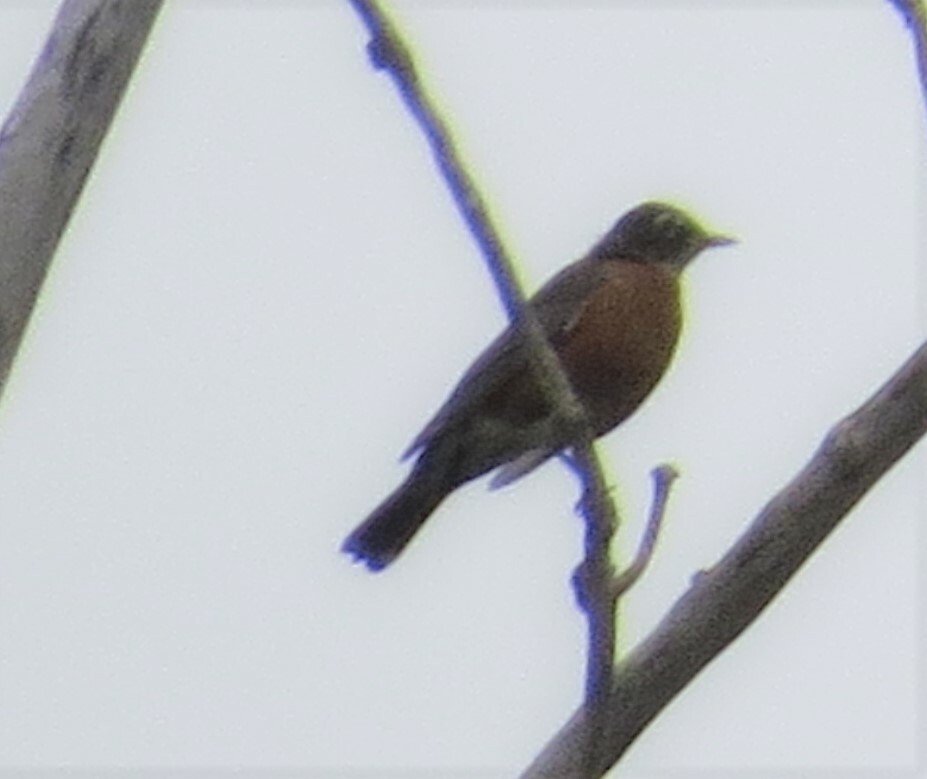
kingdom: Animalia
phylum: Chordata
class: Aves
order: Passeriformes
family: Turdidae
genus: Turdus
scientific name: Turdus migratorius
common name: American robin
